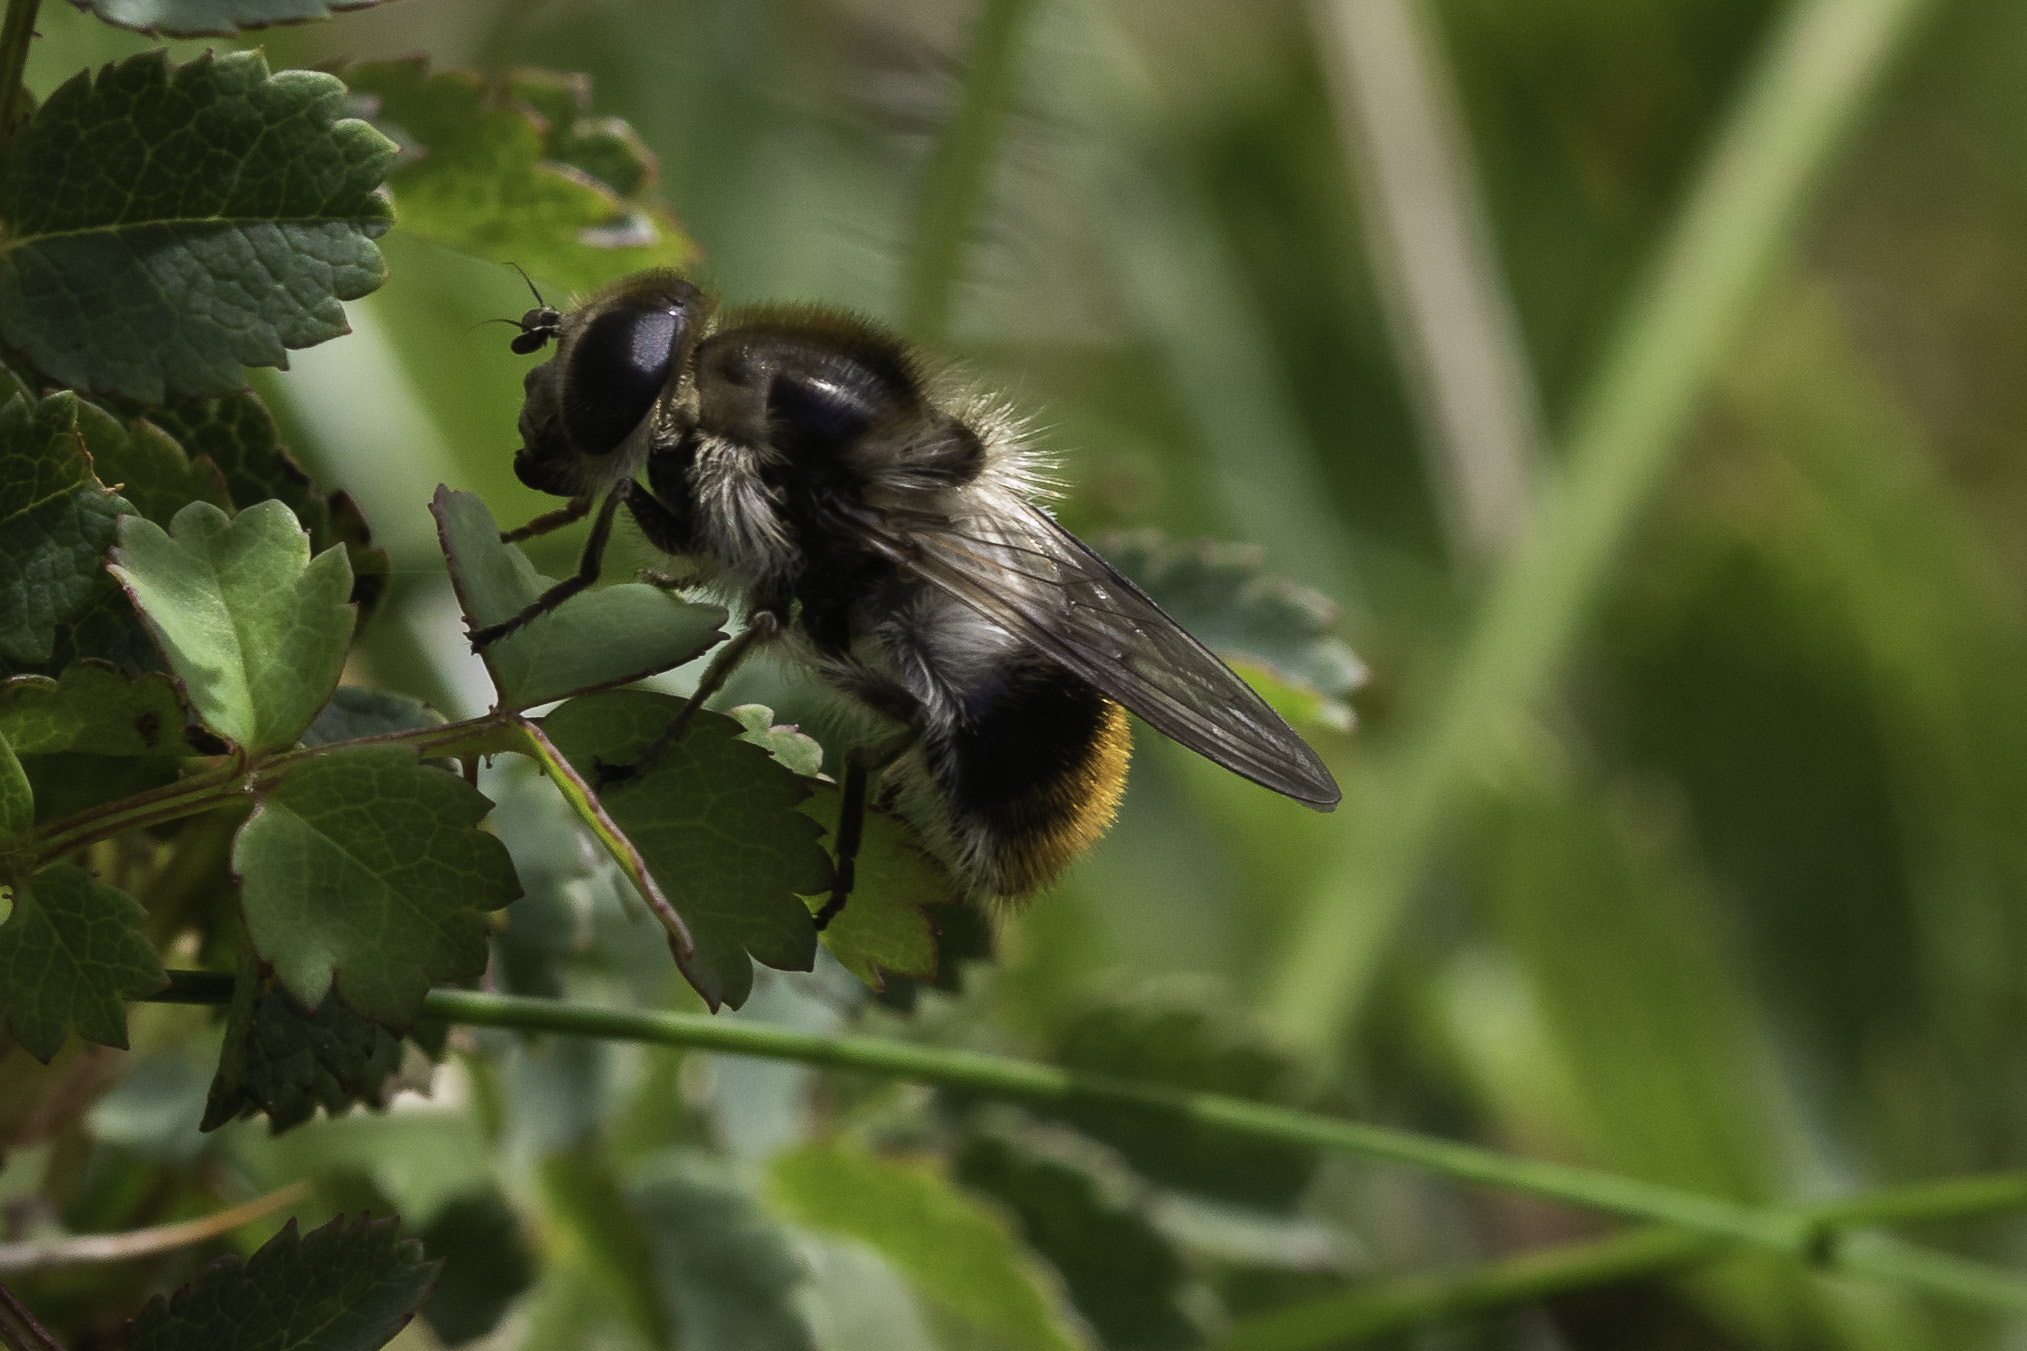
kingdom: Animalia
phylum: Arthropoda
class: Insecta
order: Diptera
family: Syrphidae
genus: Cheilosia
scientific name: Cheilosia illustrata
